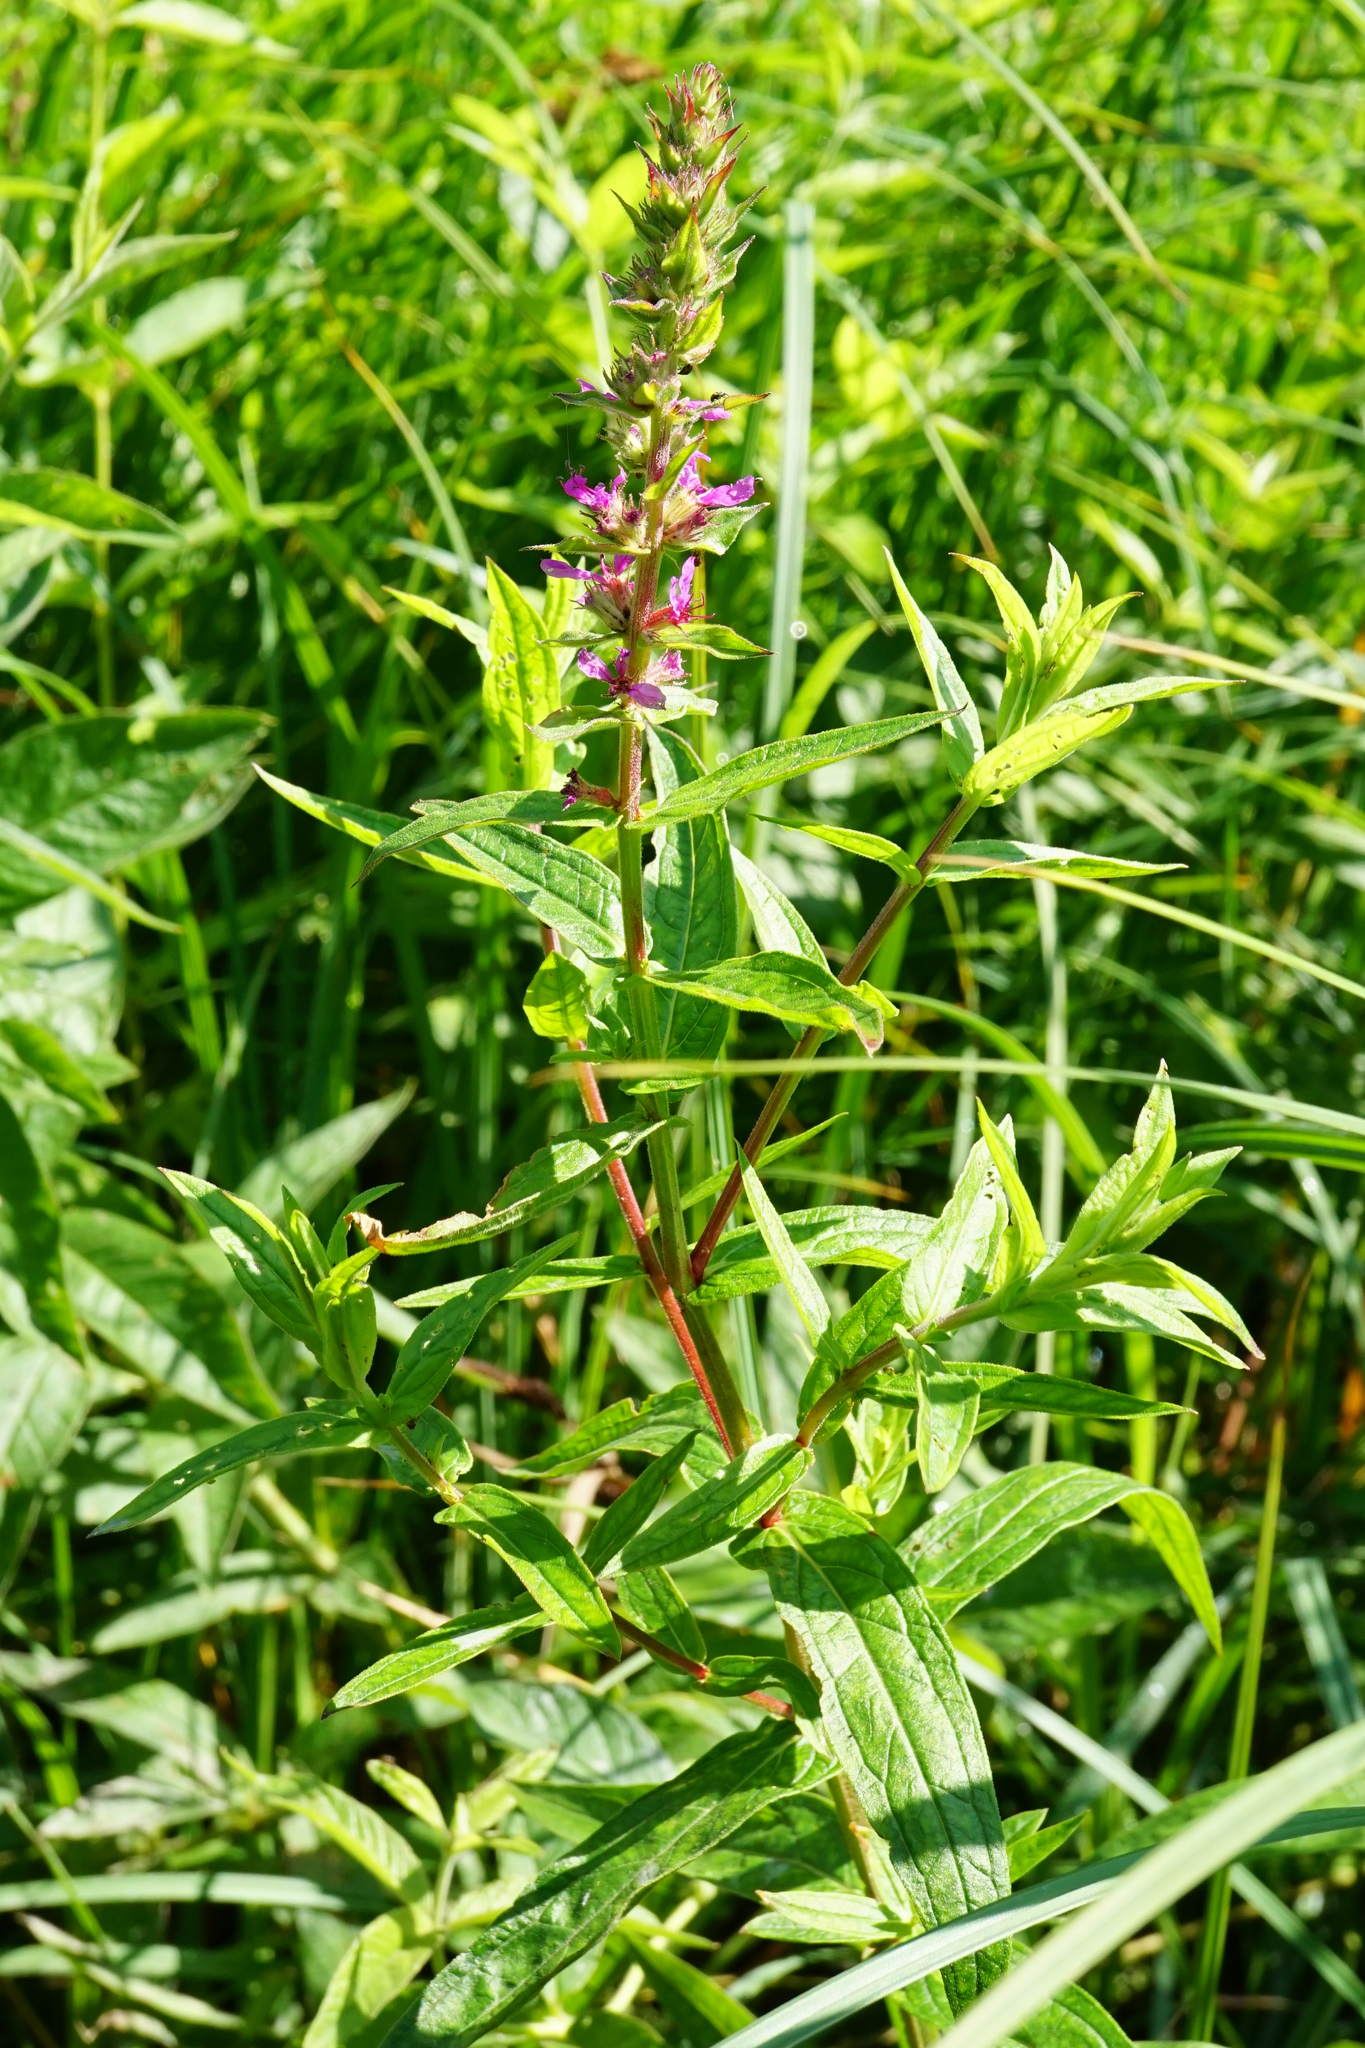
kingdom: Plantae
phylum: Tracheophyta
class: Magnoliopsida
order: Myrtales
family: Lythraceae
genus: Lythrum
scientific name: Lythrum salicaria
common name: Purple loosestrife
